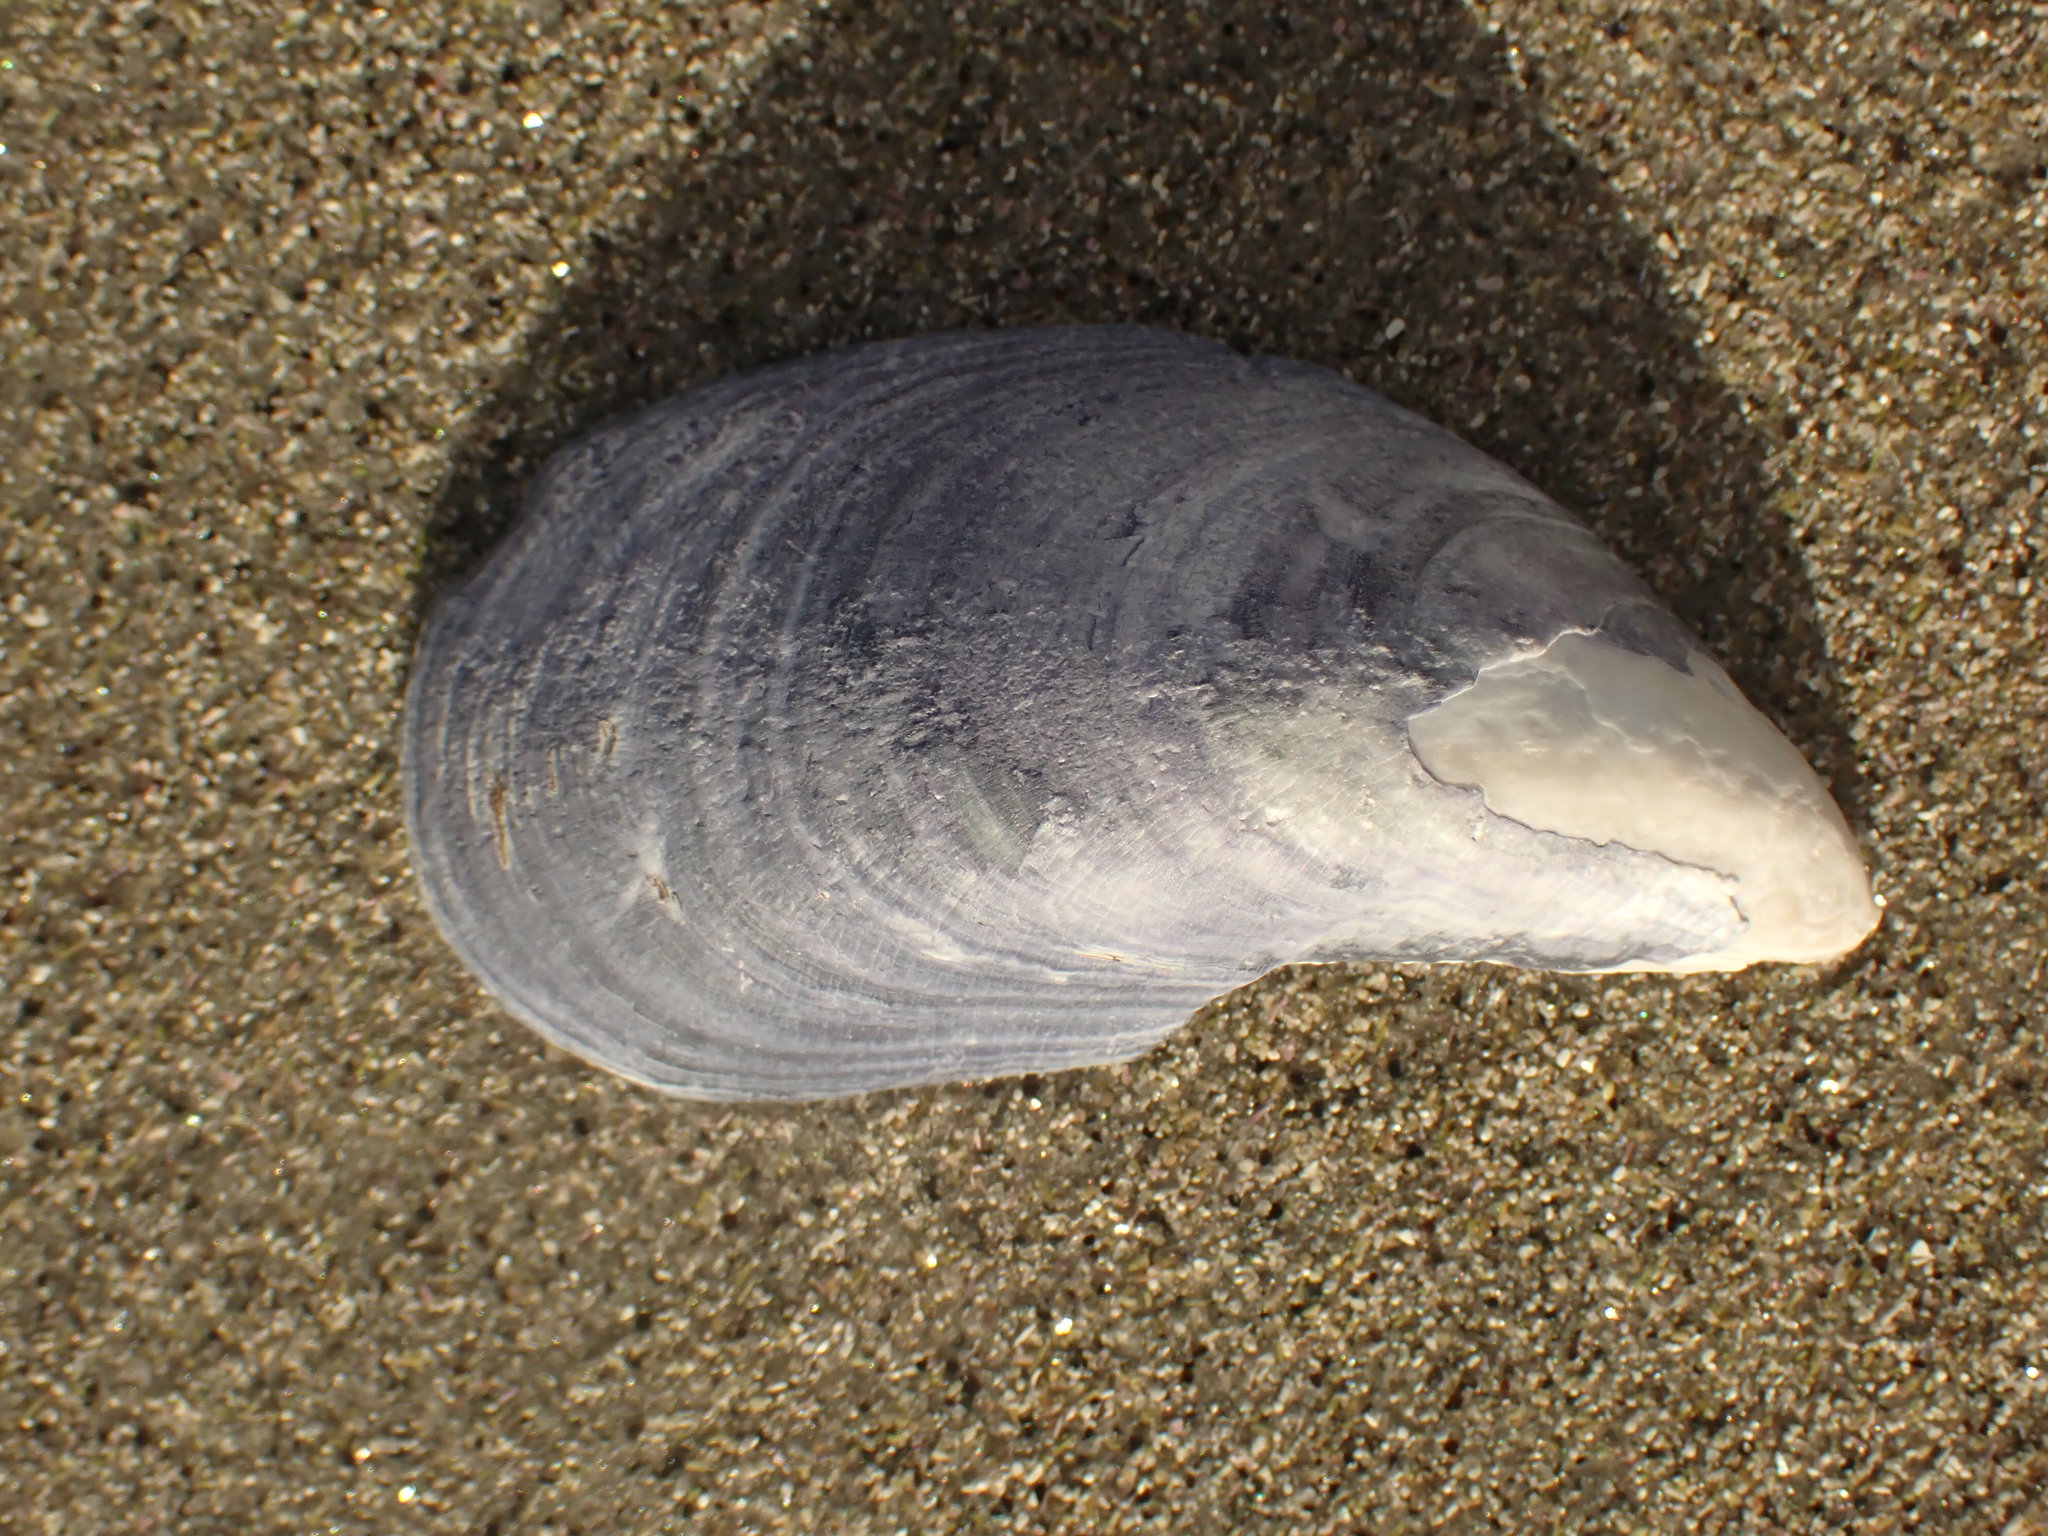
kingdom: Animalia
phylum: Mollusca
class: Bivalvia
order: Mytilida
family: Mytilidae
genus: Mytilus
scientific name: Mytilus edulis
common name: Blue mussel
